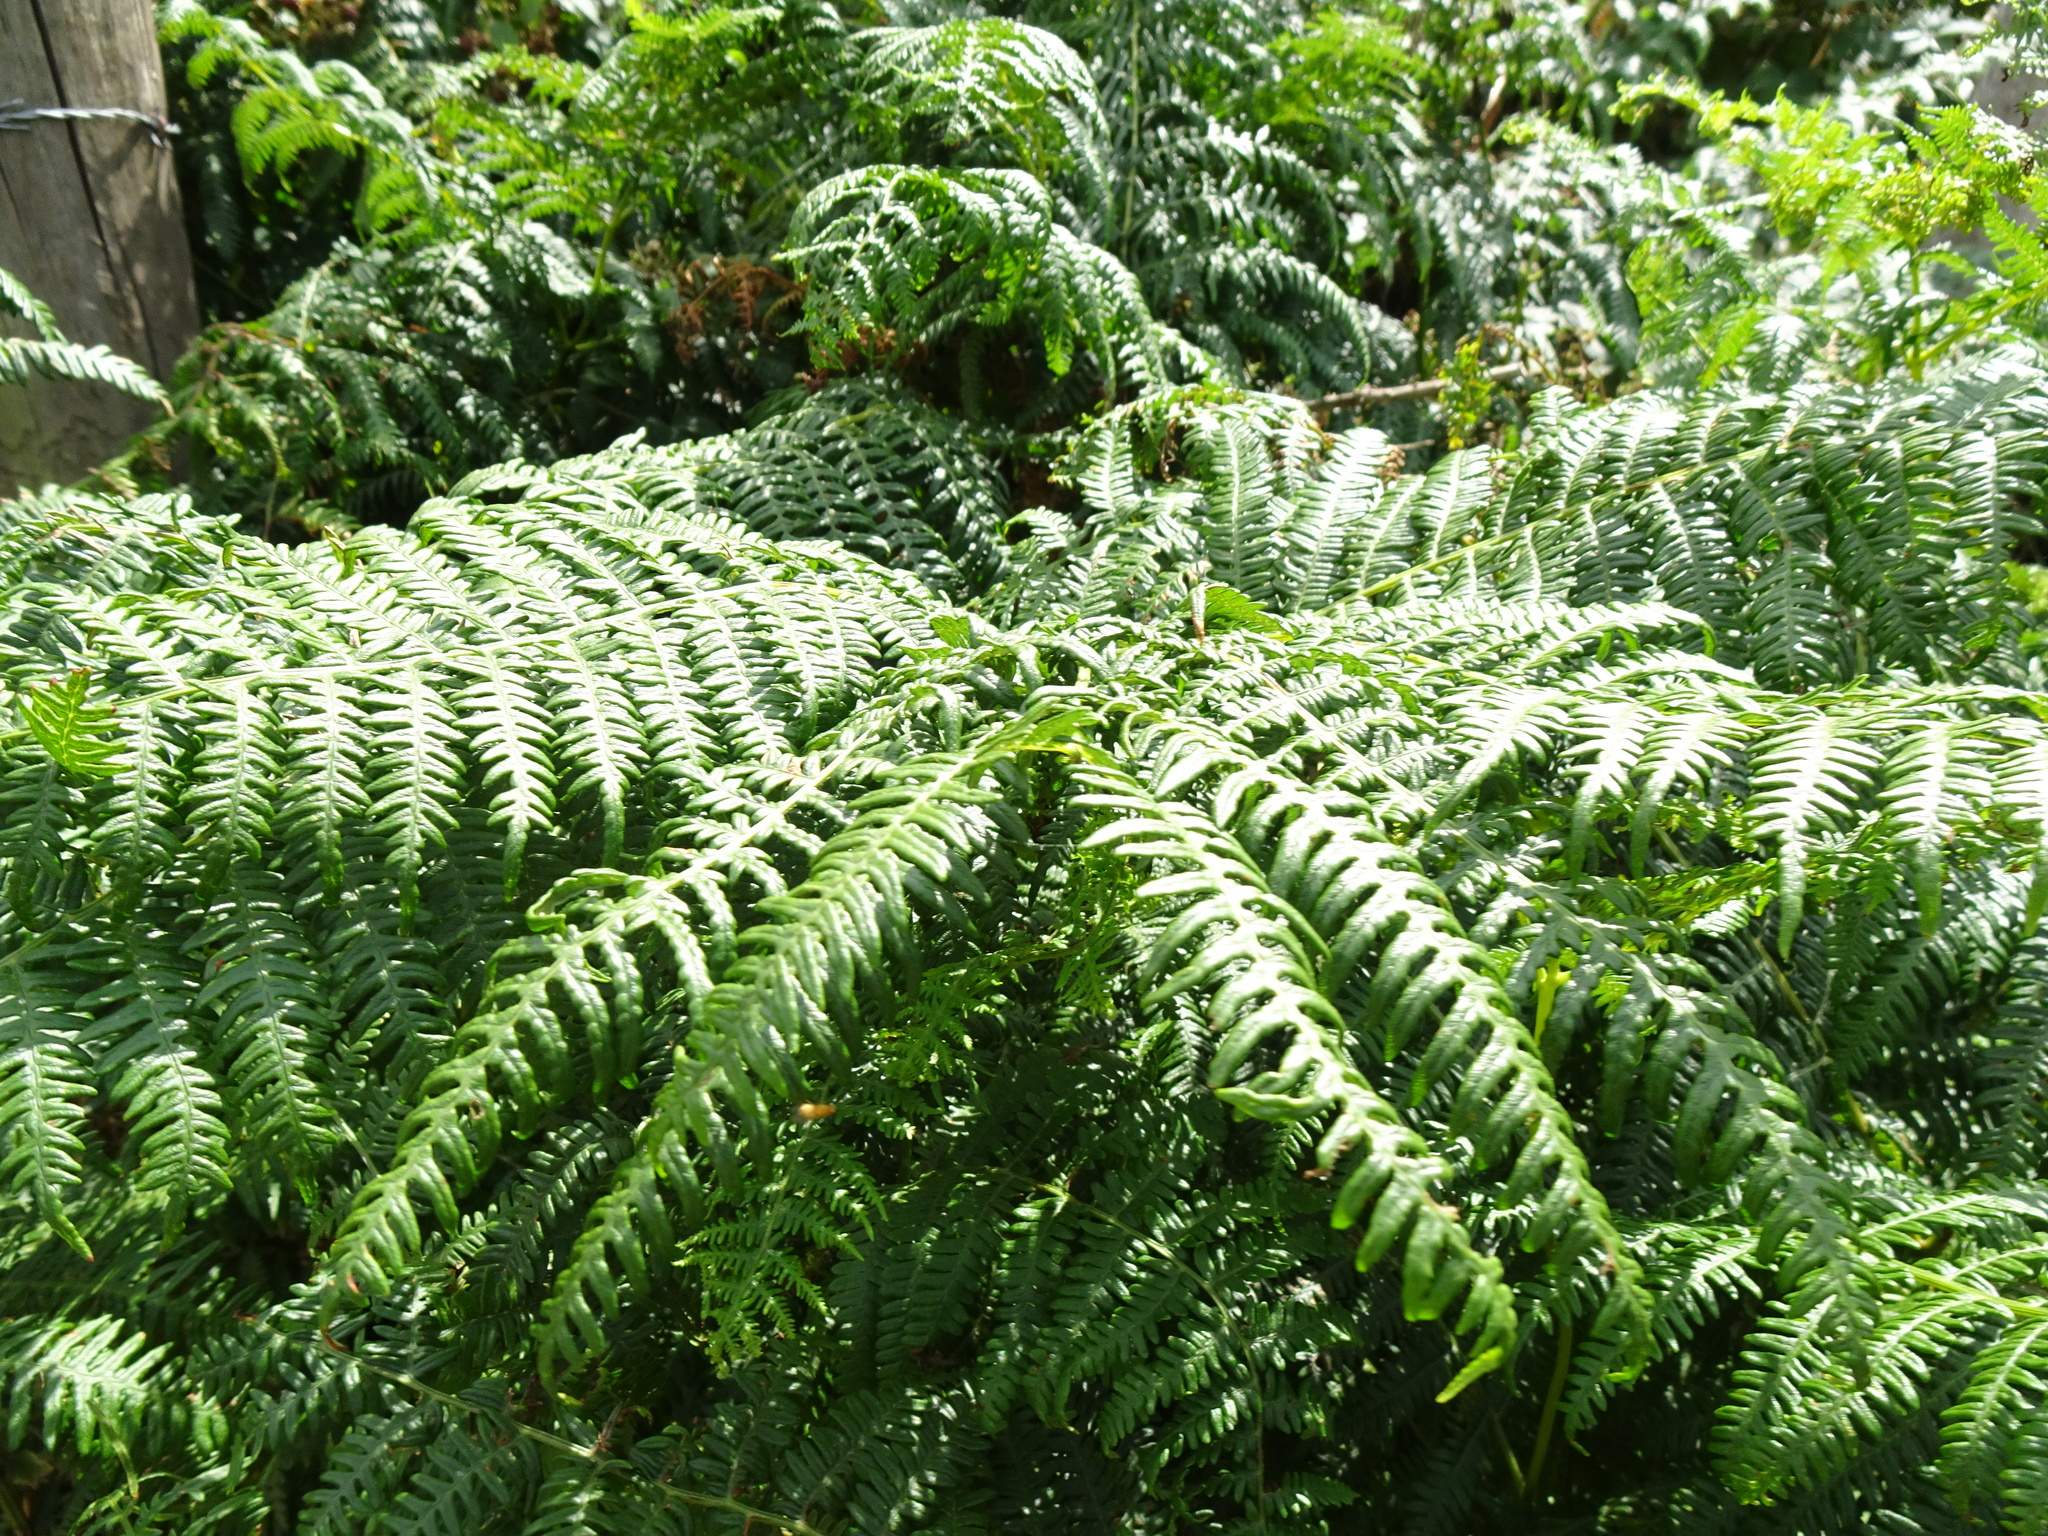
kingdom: Plantae
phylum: Tracheophyta
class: Polypodiopsida
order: Polypodiales
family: Dennstaedtiaceae
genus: Pteridium
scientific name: Pteridium aquilinum
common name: Bracken
